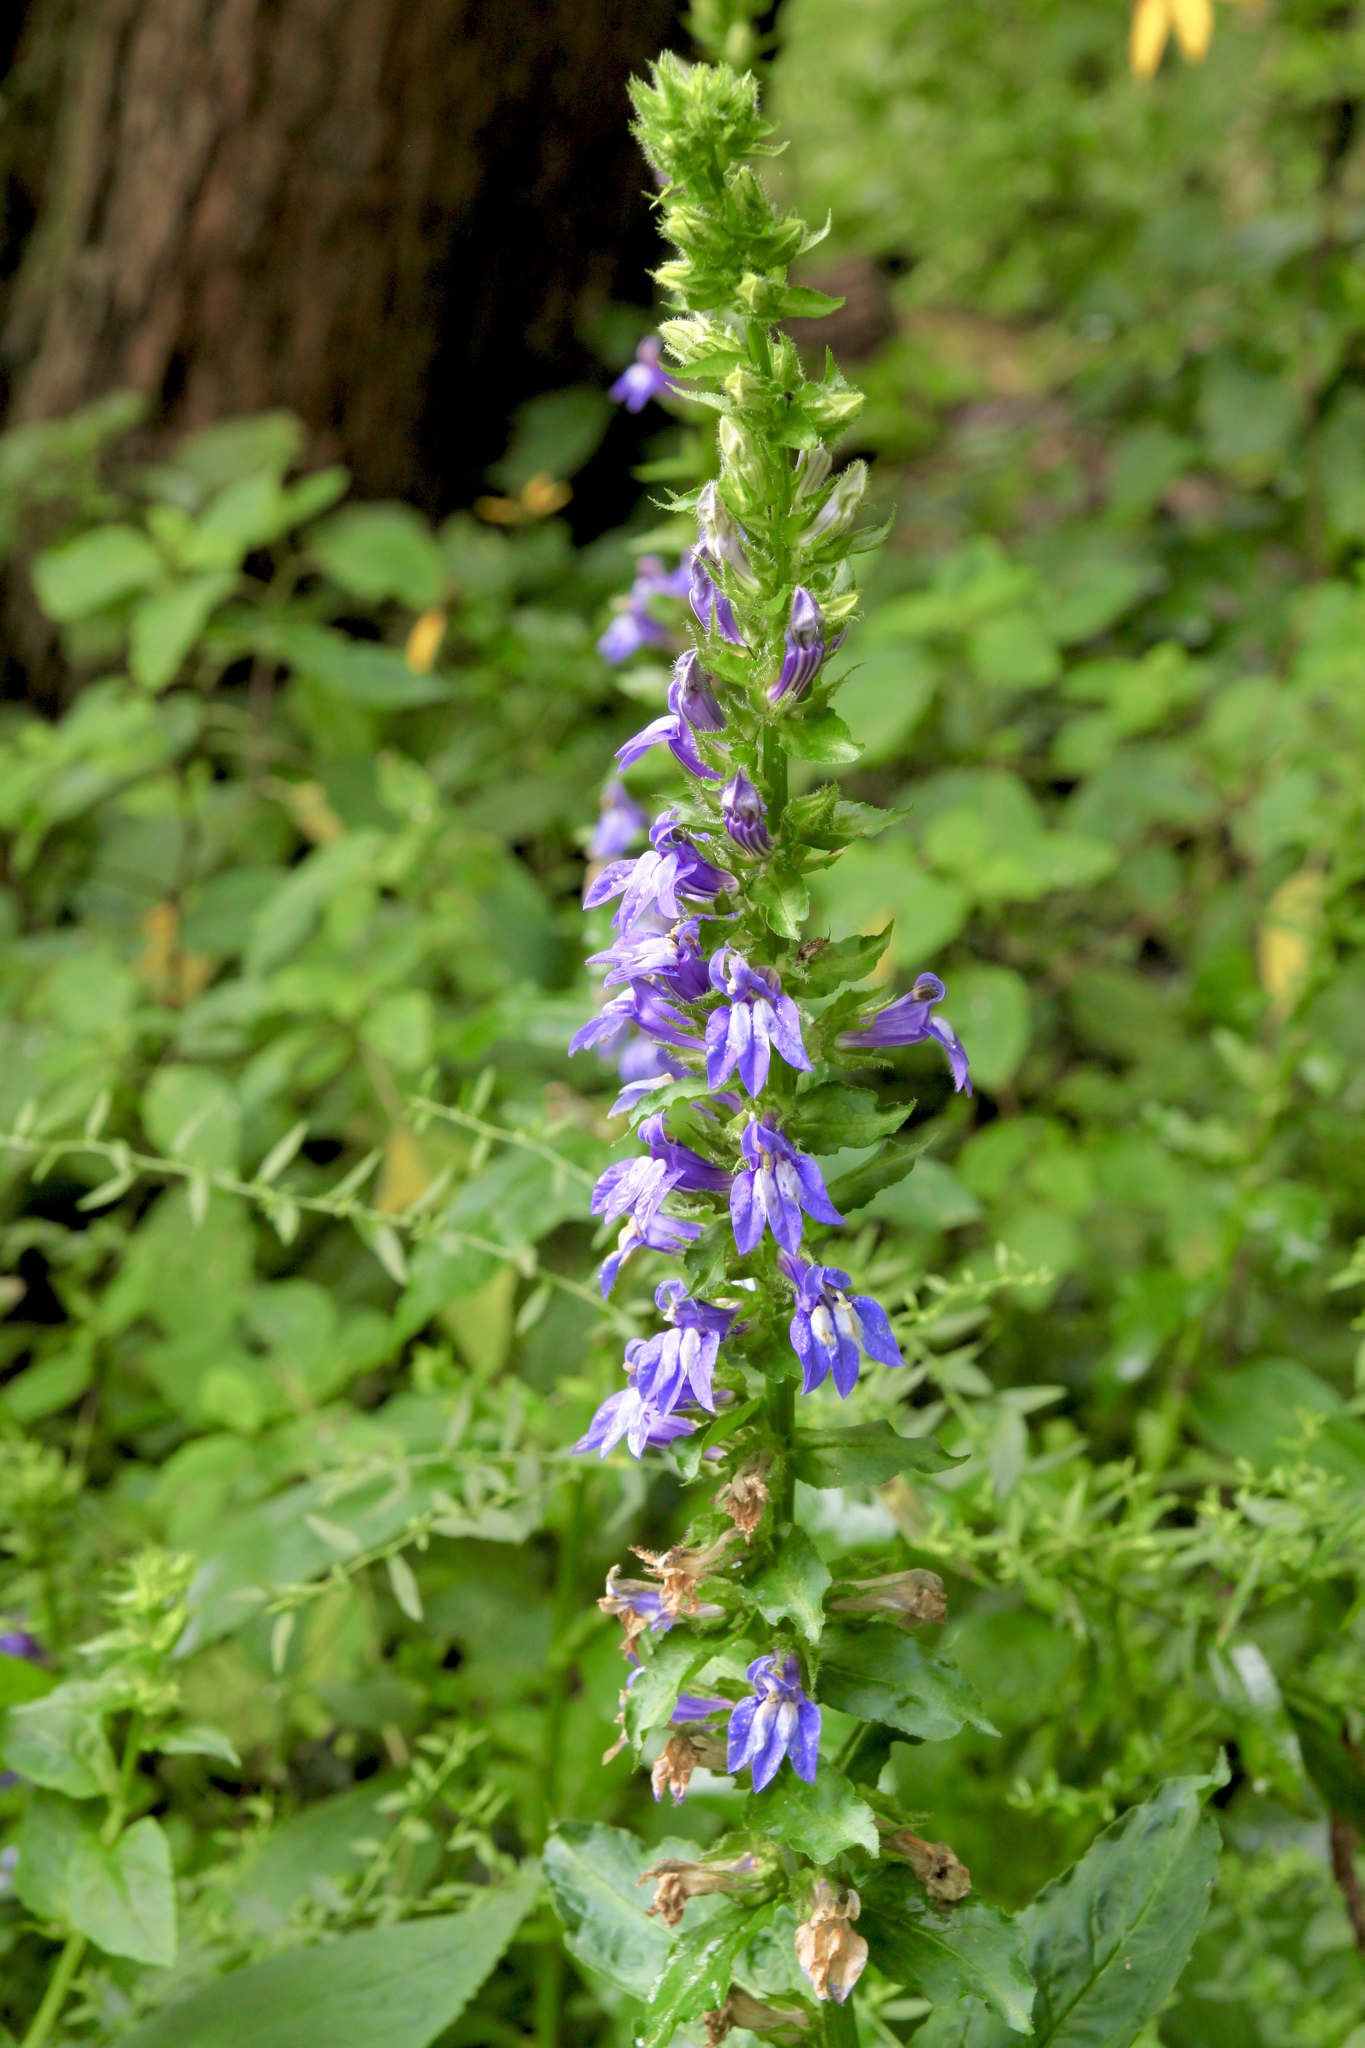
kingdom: Plantae
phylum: Tracheophyta
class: Magnoliopsida
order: Asterales
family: Campanulaceae
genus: Lobelia
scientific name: Lobelia siphilitica
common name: Great lobelia
